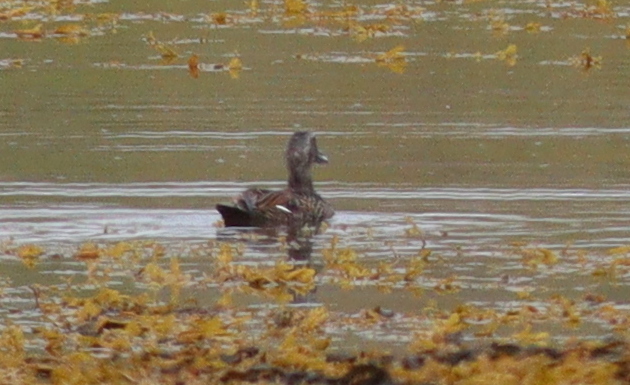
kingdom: Animalia
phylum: Chordata
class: Aves
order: Anseriformes
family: Anatidae
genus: Somateria
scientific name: Somateria mollissima
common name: Common eider
